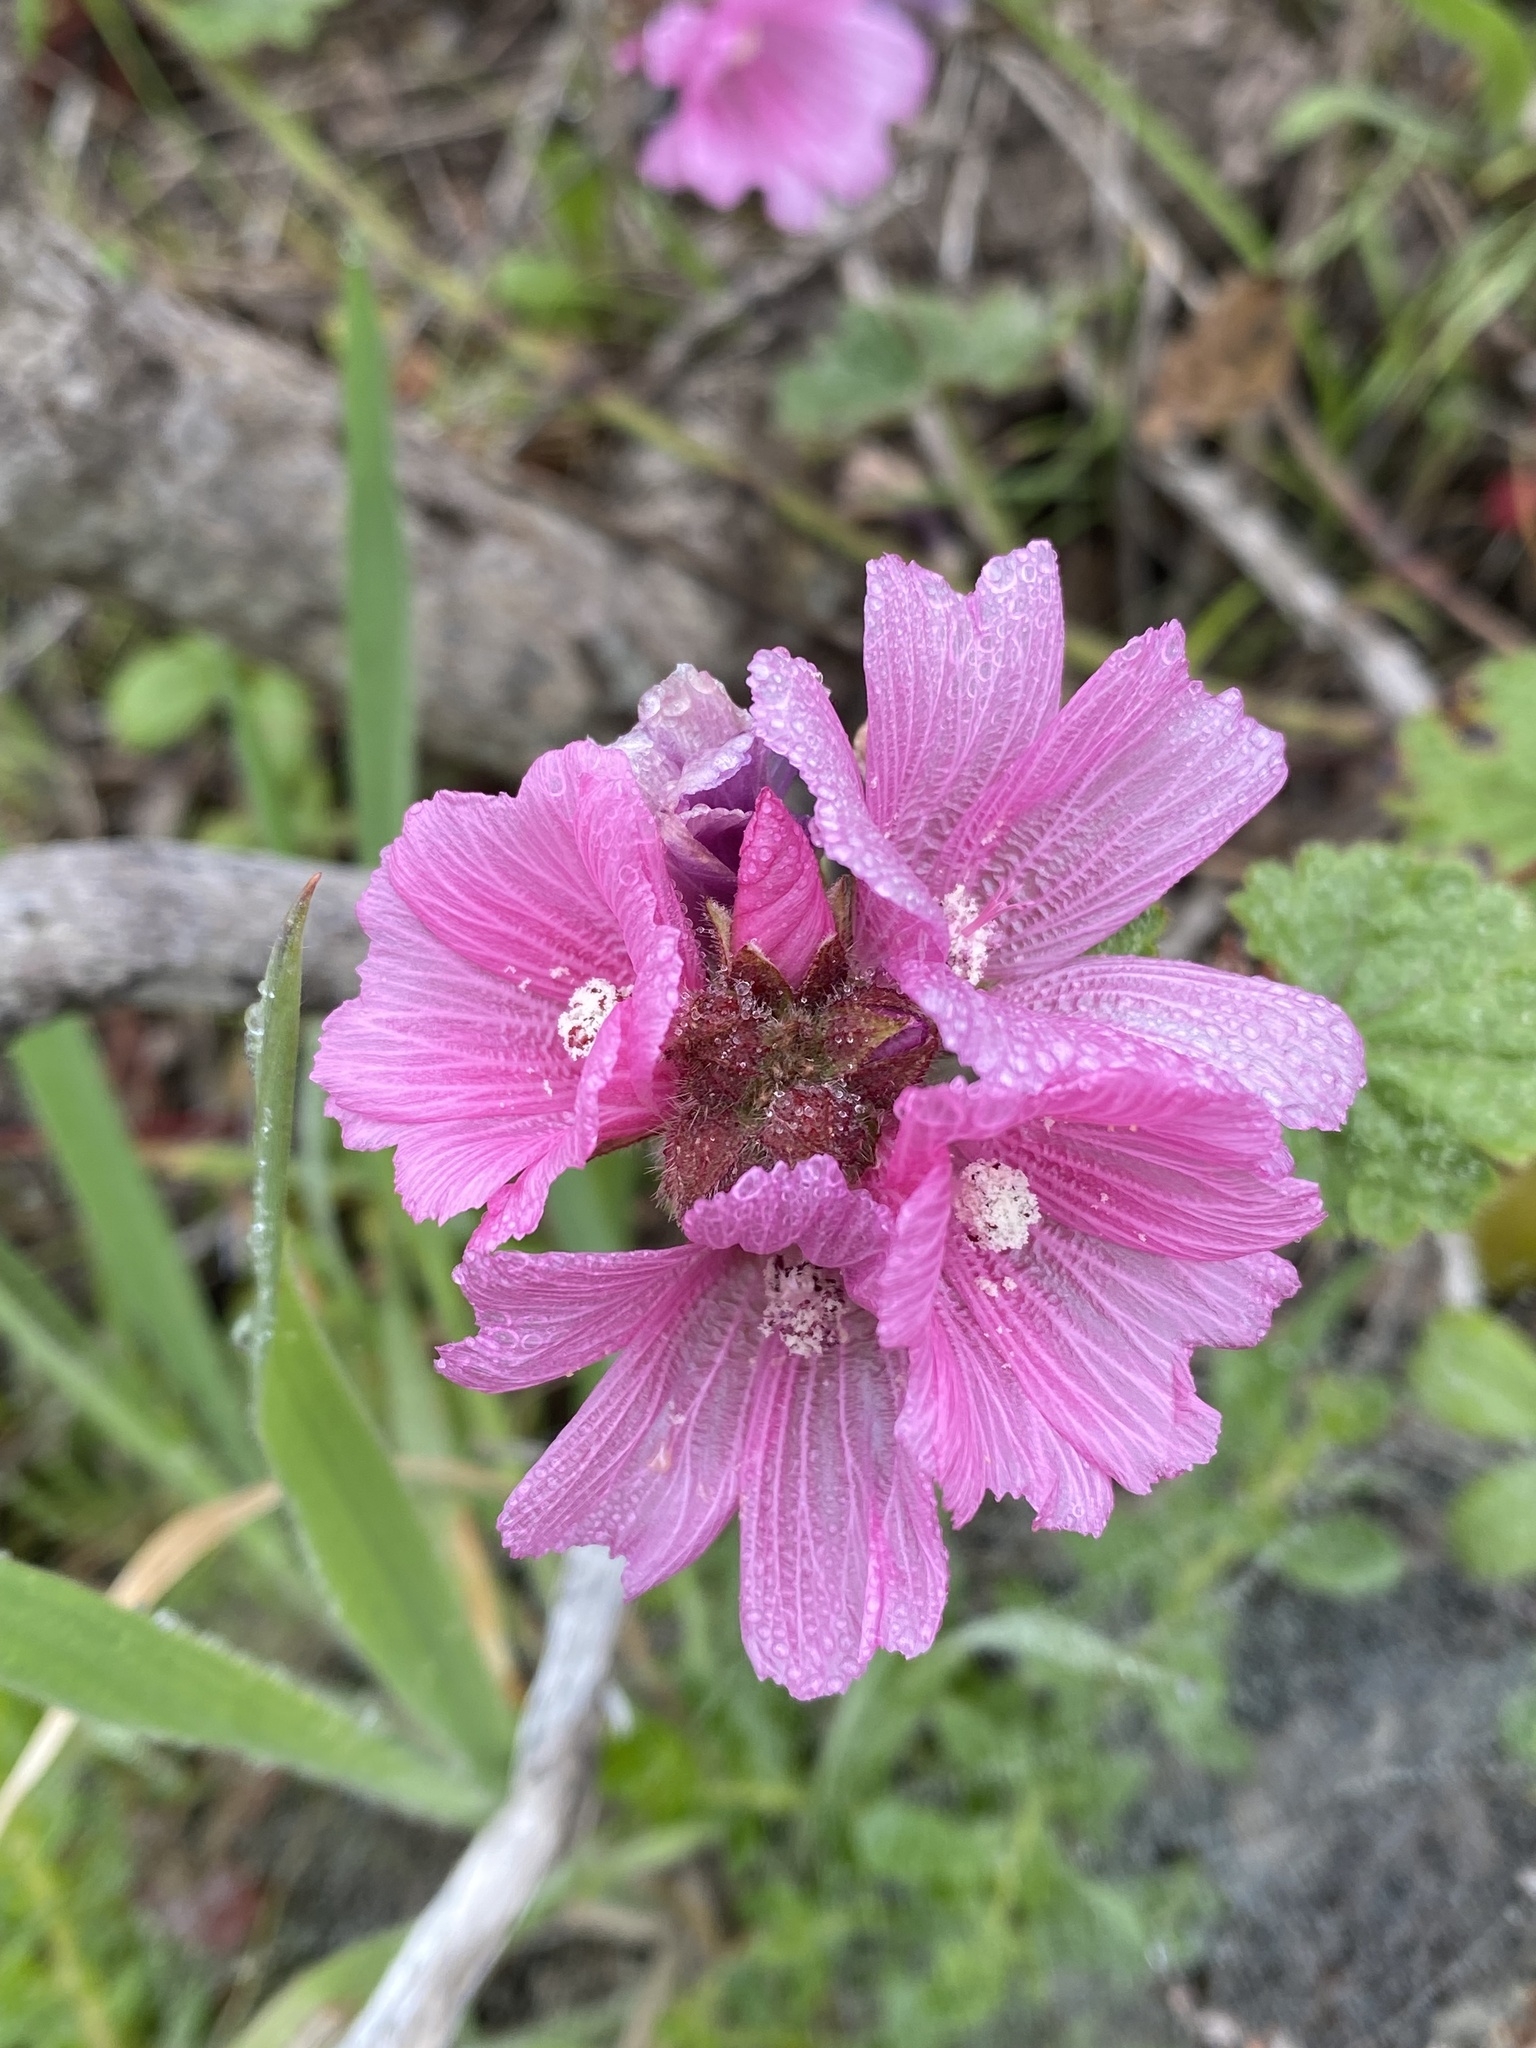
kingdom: Plantae
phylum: Tracheophyta
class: Magnoliopsida
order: Malvales
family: Malvaceae
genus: Sidalcea
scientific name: Sidalcea malviflora
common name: Greek mallow
